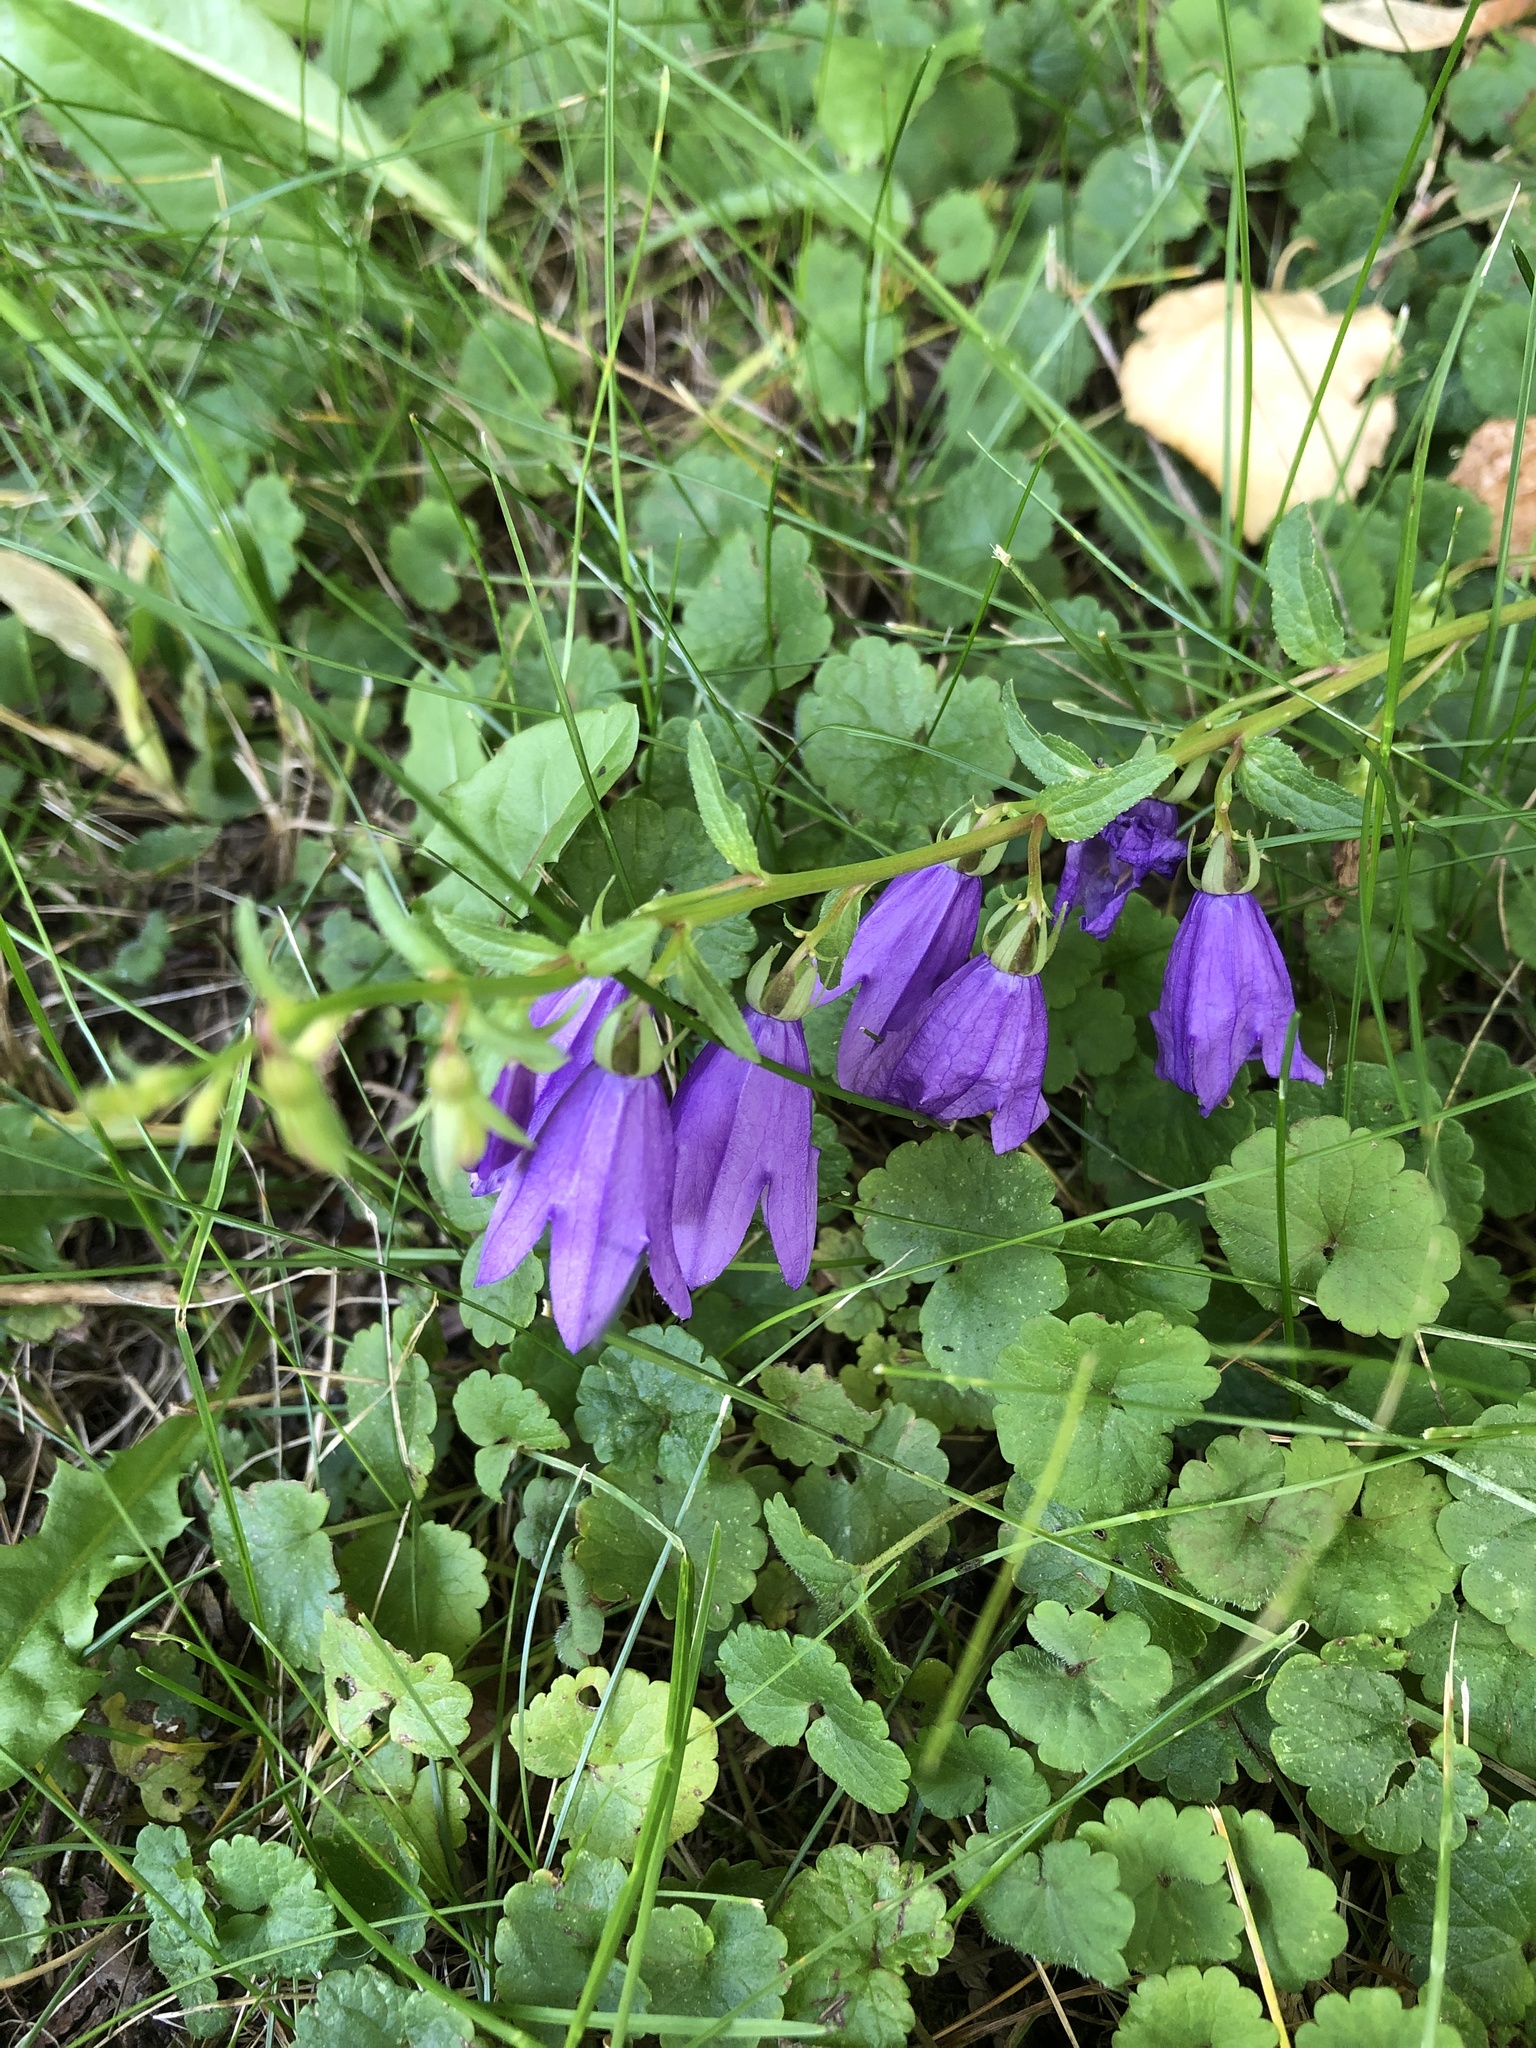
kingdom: Plantae
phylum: Tracheophyta
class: Magnoliopsida
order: Asterales
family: Campanulaceae
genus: Campanula
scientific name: Campanula rapunculoides
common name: Creeping bellflower
